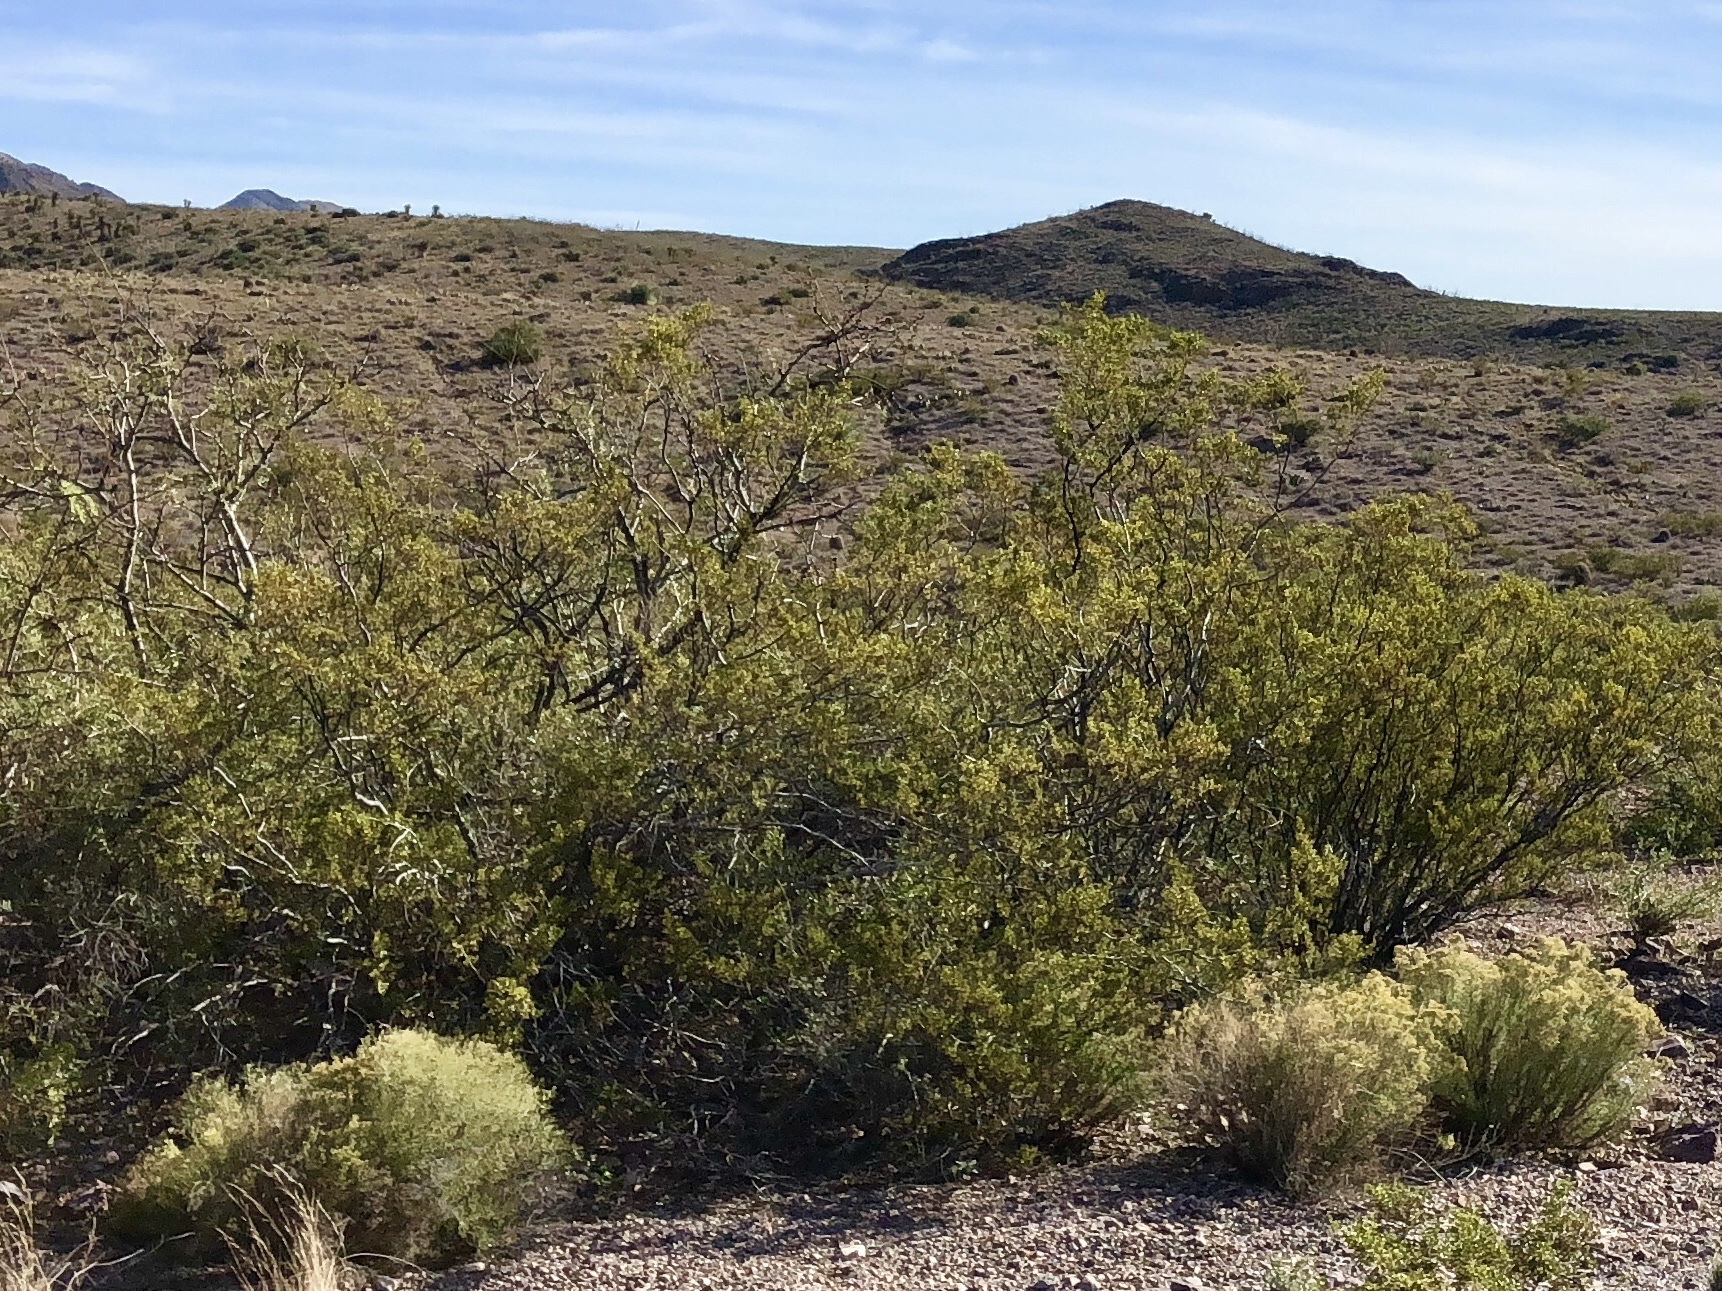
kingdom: Plantae
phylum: Tracheophyta
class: Magnoliopsida
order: Zygophyllales
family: Zygophyllaceae
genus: Larrea
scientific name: Larrea tridentata
